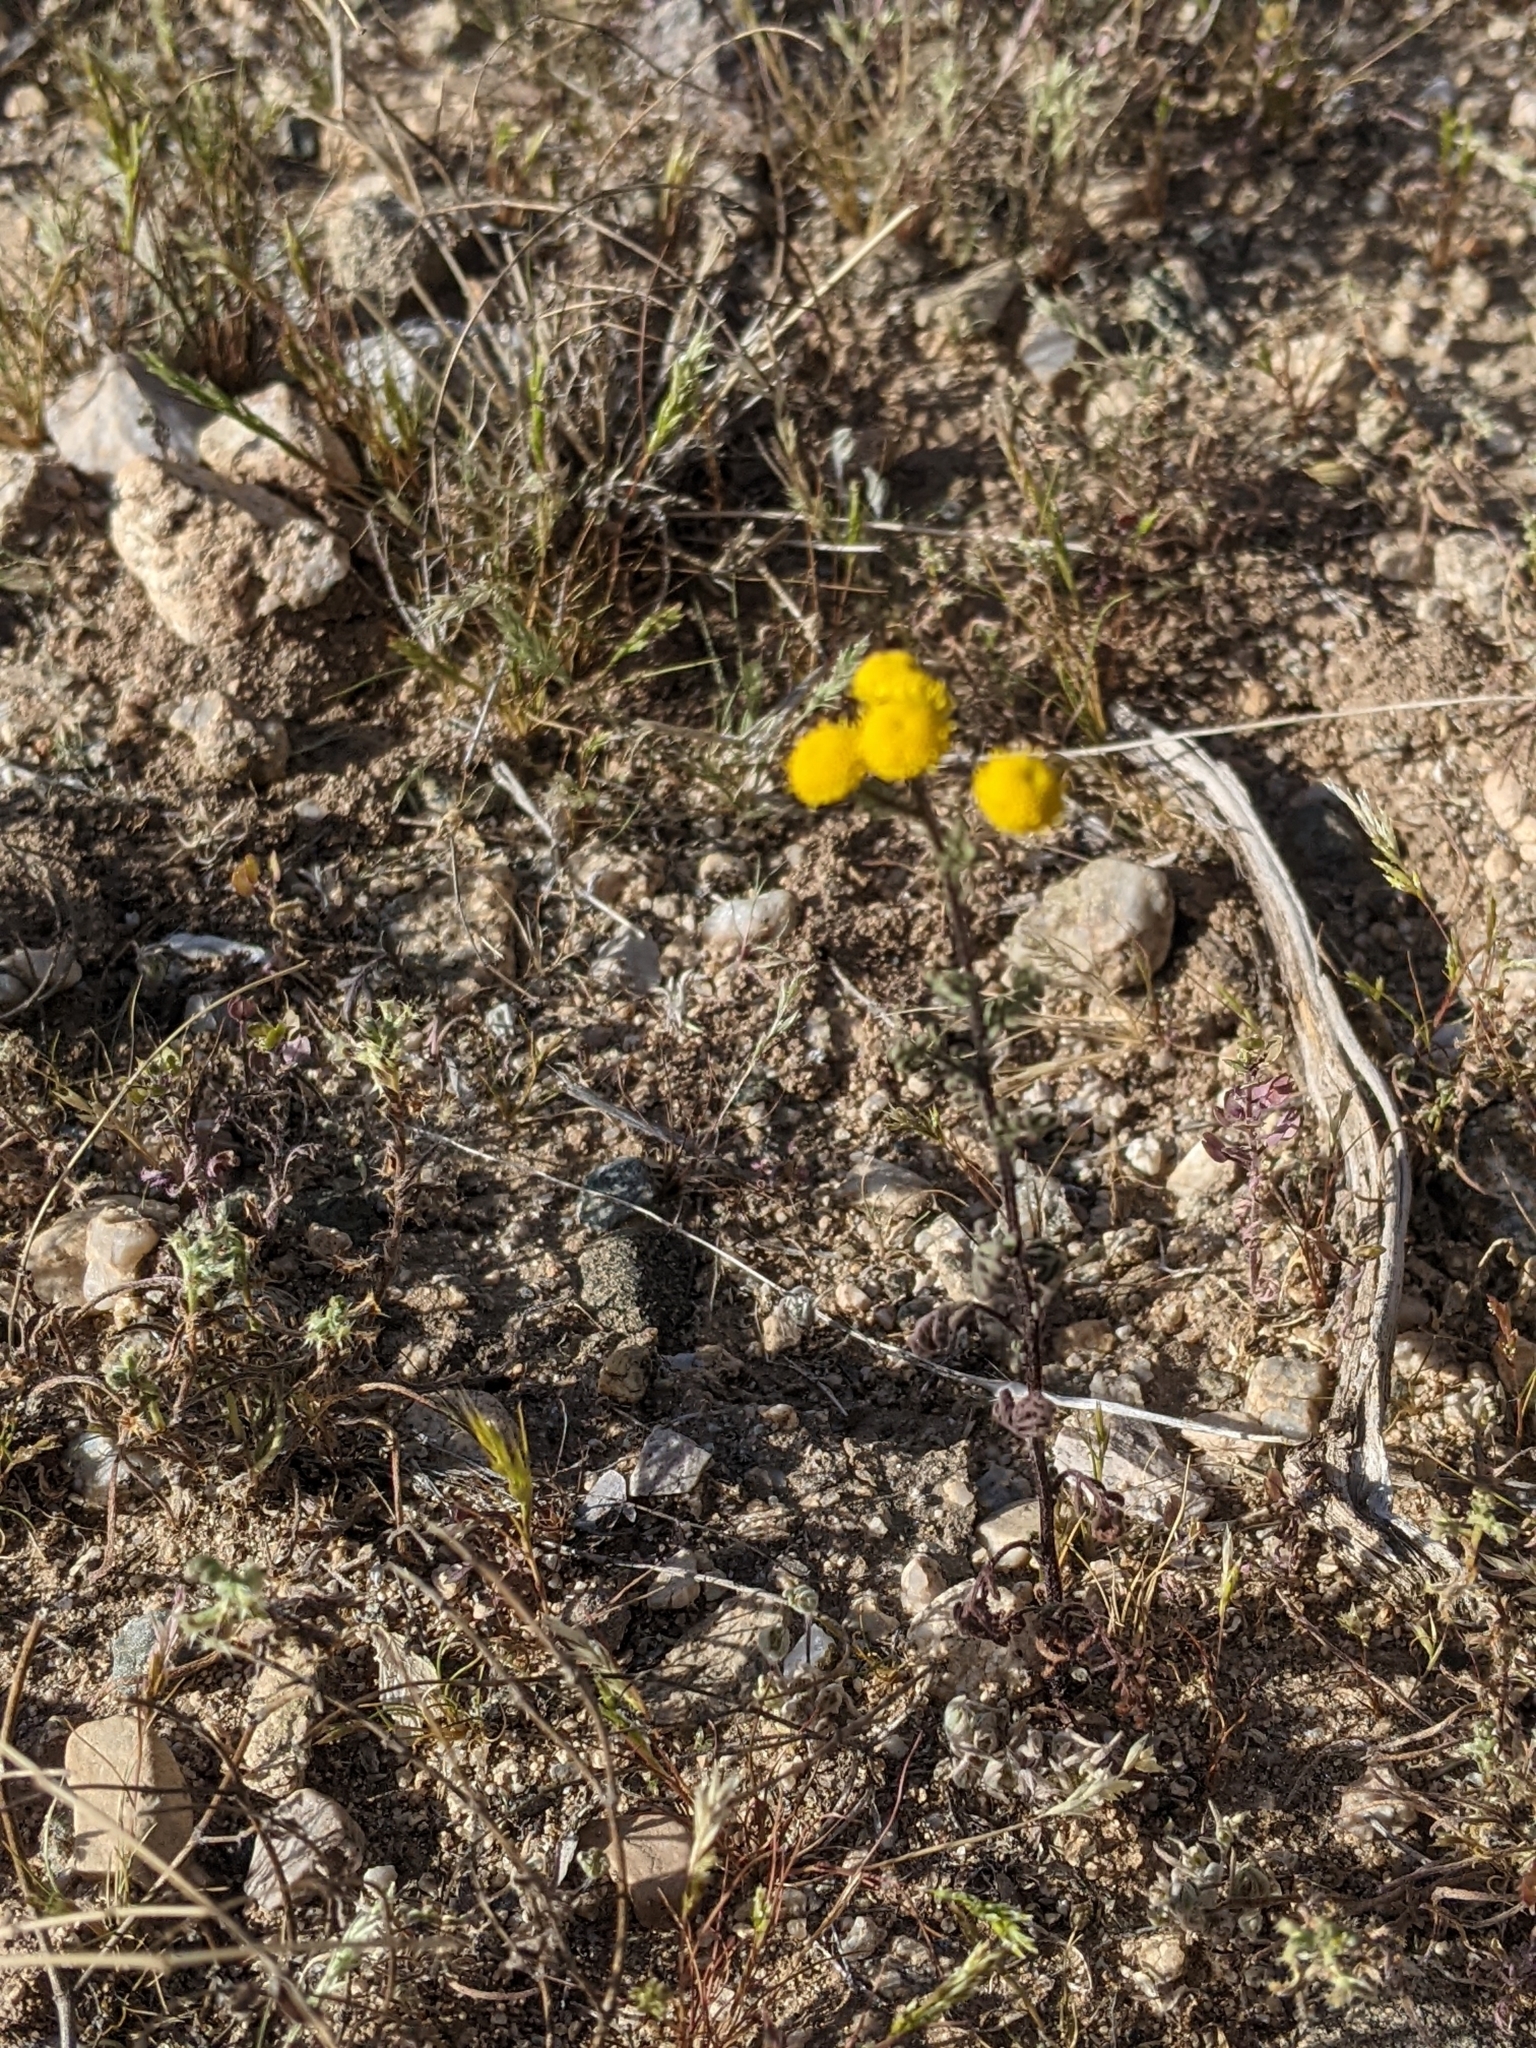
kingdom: Plantae
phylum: Tracheophyta
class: Magnoliopsida
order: Asterales
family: Asteraceae
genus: Oncosiphon
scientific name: Oncosiphon pilulifer
